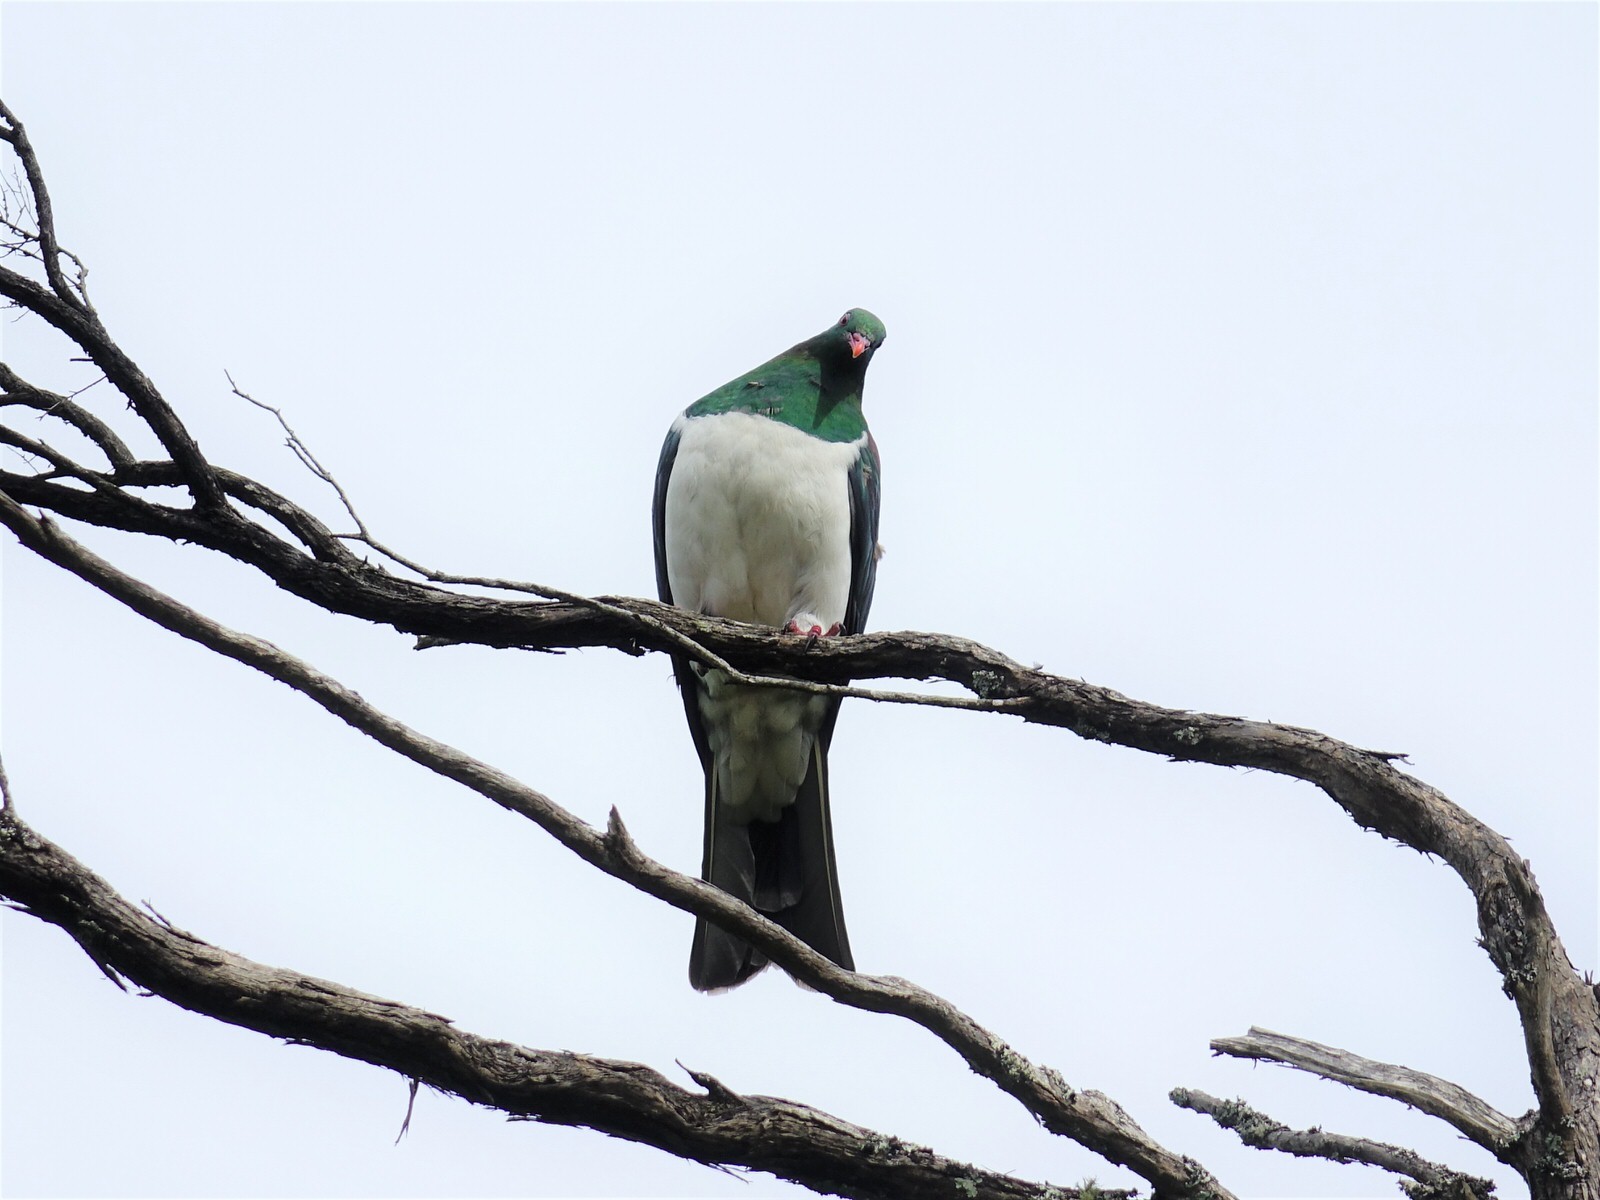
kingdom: Animalia
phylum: Chordata
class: Aves
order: Columbiformes
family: Columbidae
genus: Hemiphaga
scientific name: Hemiphaga novaeseelandiae
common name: New zealand pigeon
